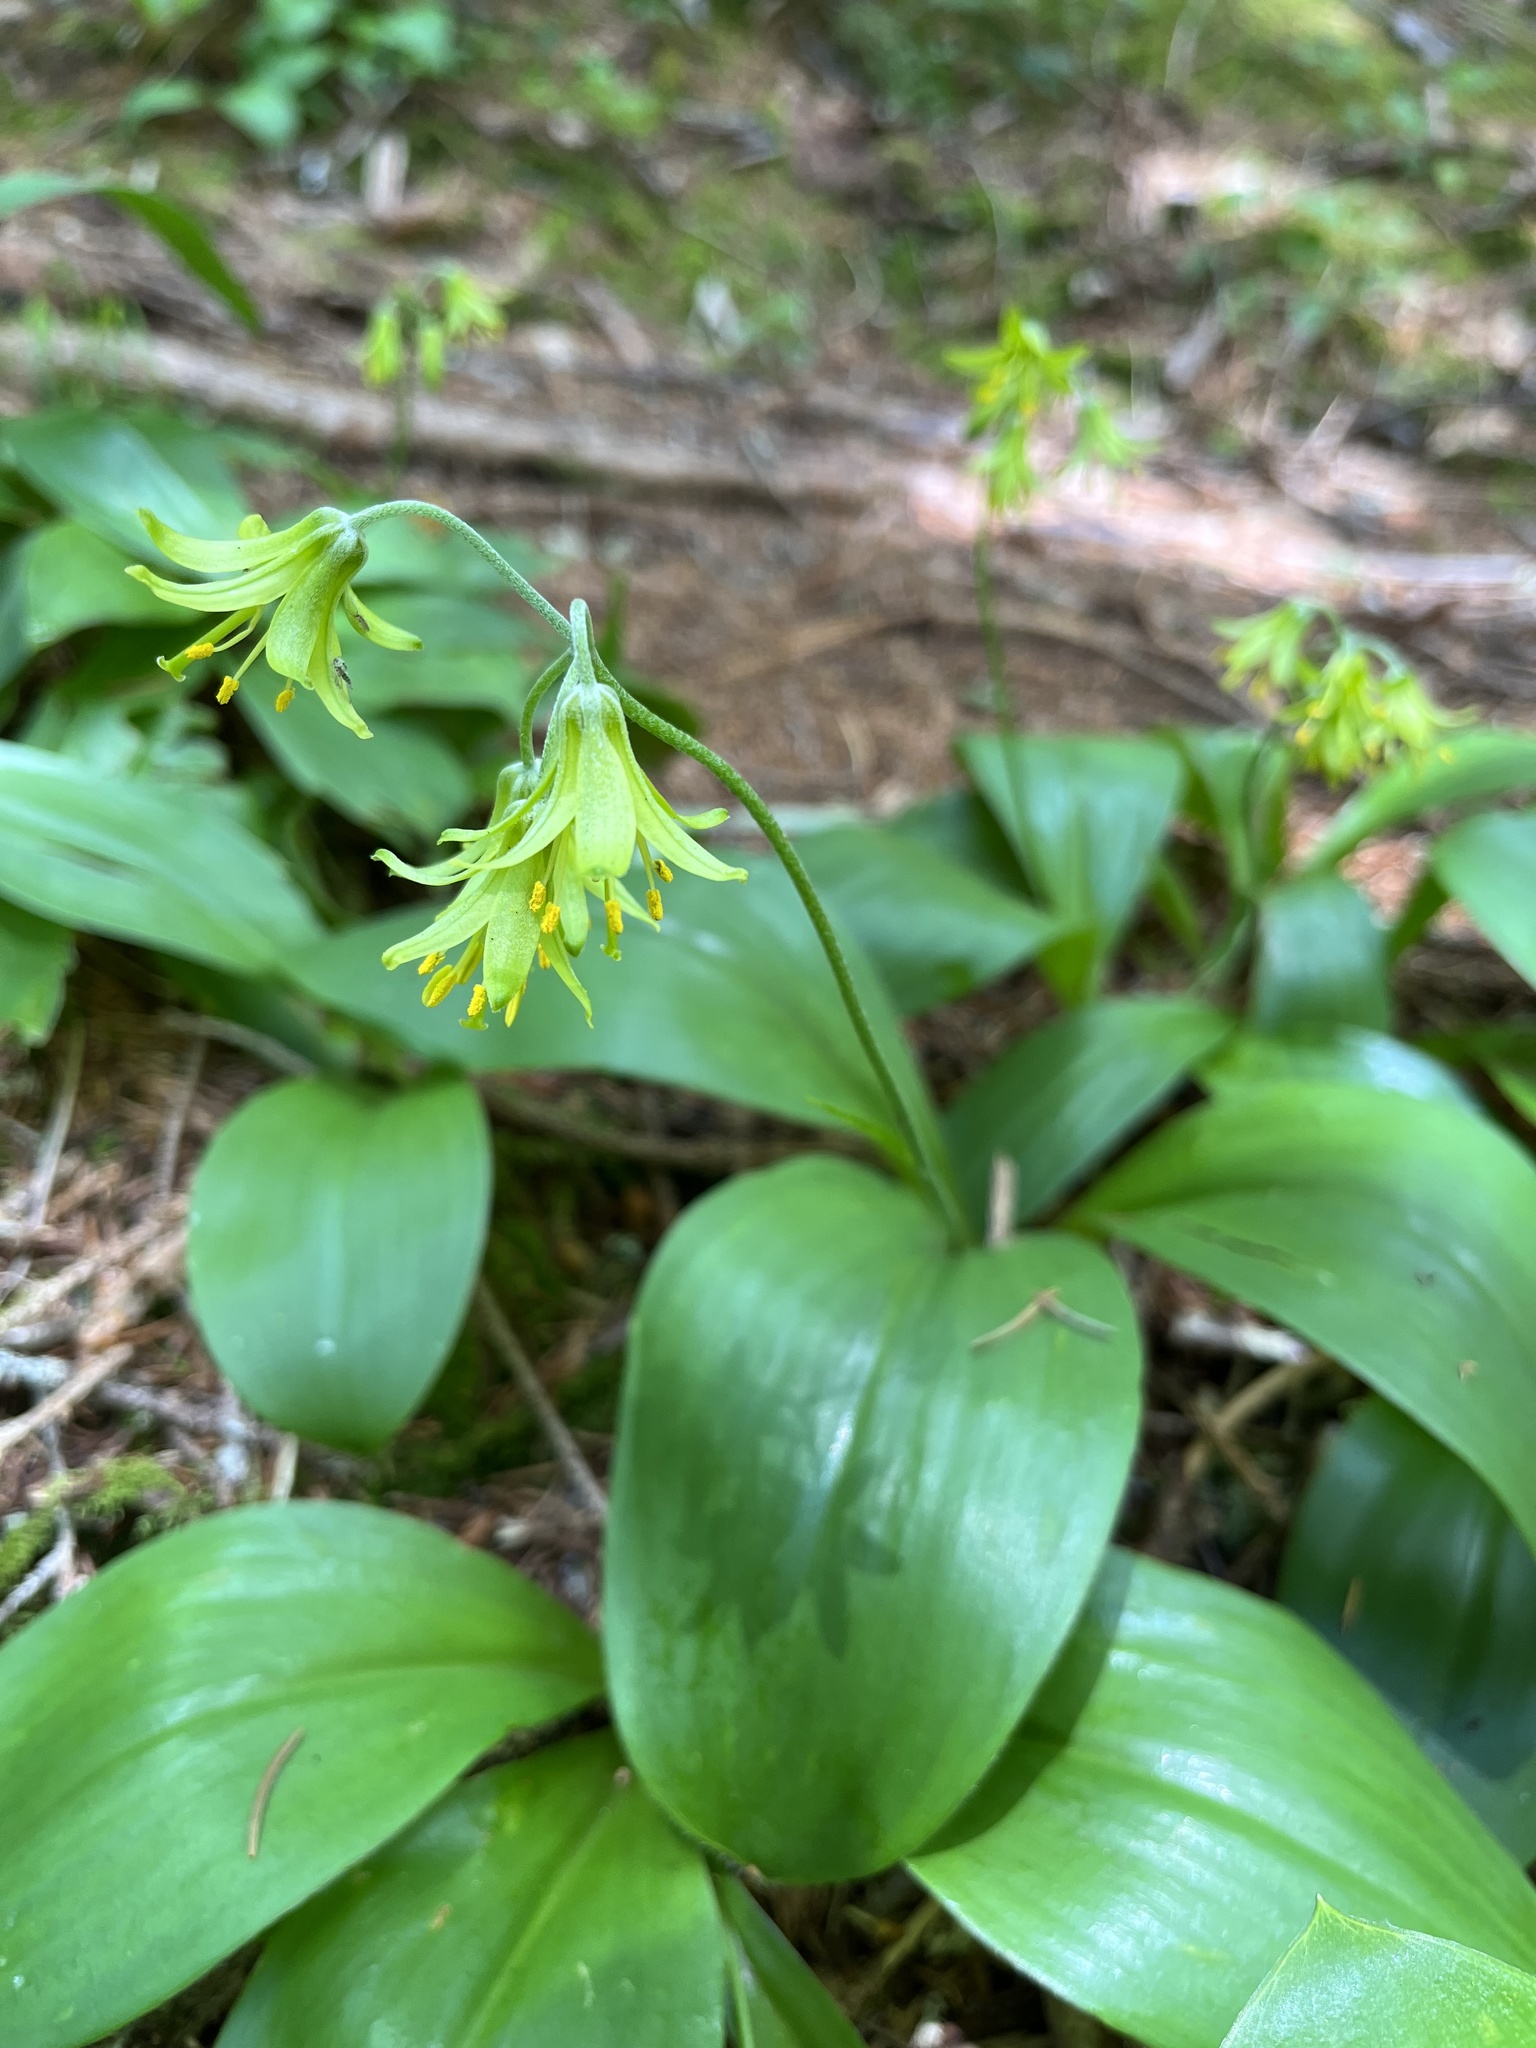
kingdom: Plantae
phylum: Tracheophyta
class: Liliopsida
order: Liliales
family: Liliaceae
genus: Clintonia
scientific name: Clintonia borealis
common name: Yellow clintonia
